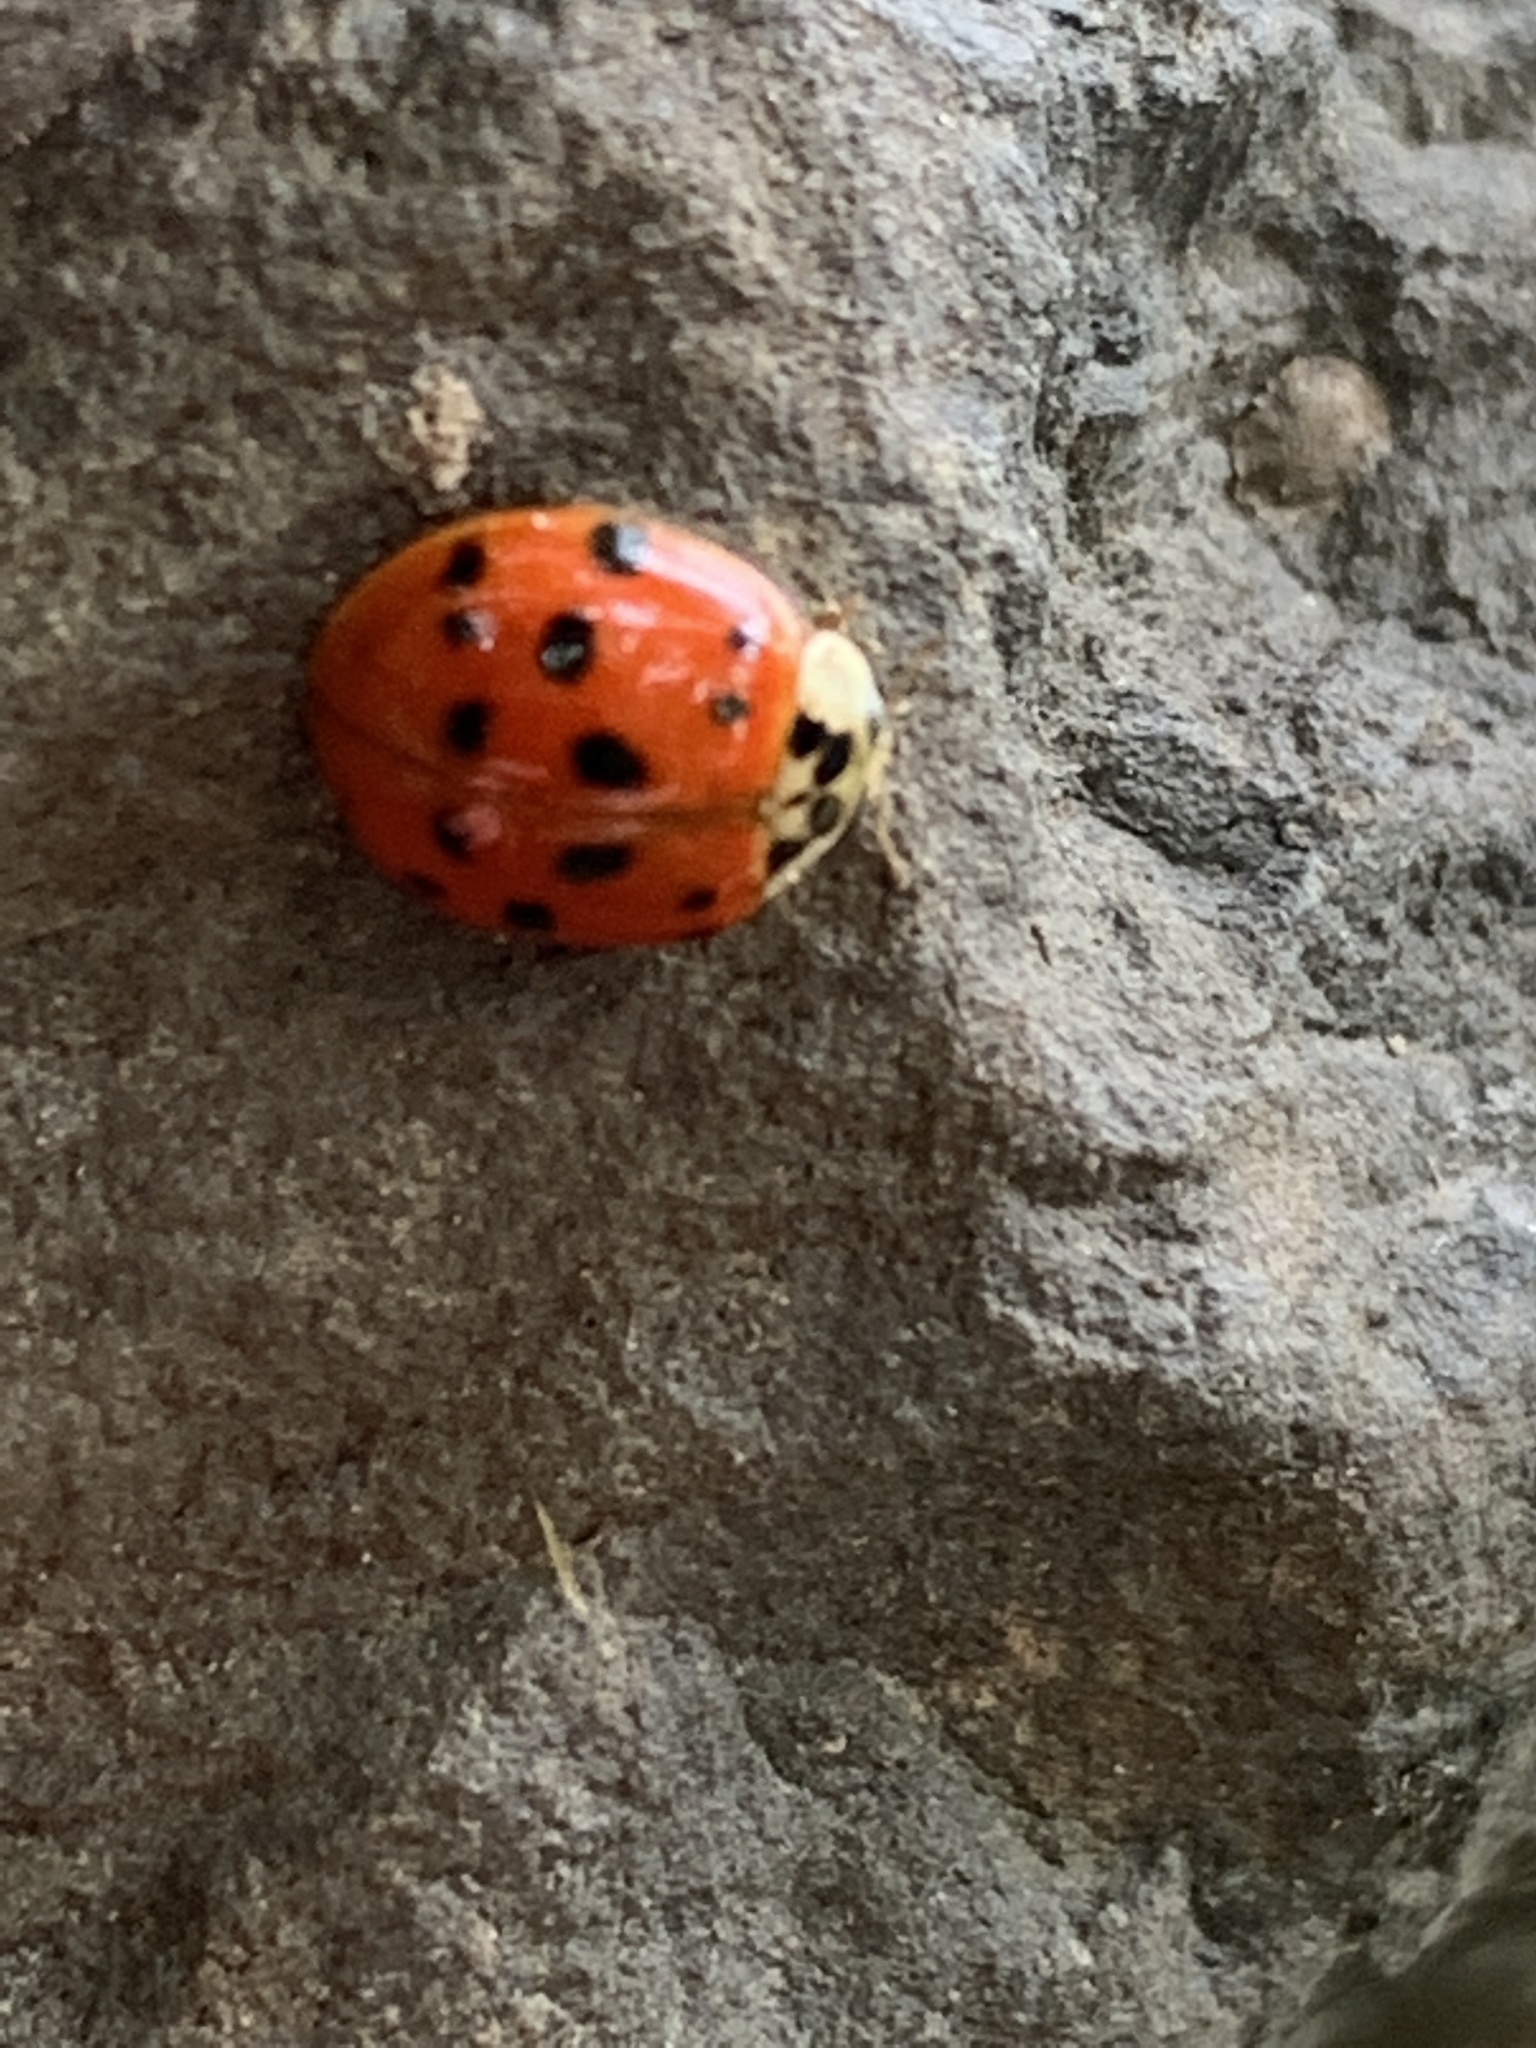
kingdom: Animalia
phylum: Arthropoda
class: Insecta
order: Coleoptera
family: Coccinellidae
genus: Harmonia
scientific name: Harmonia axyridis
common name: Harlequin ladybird
